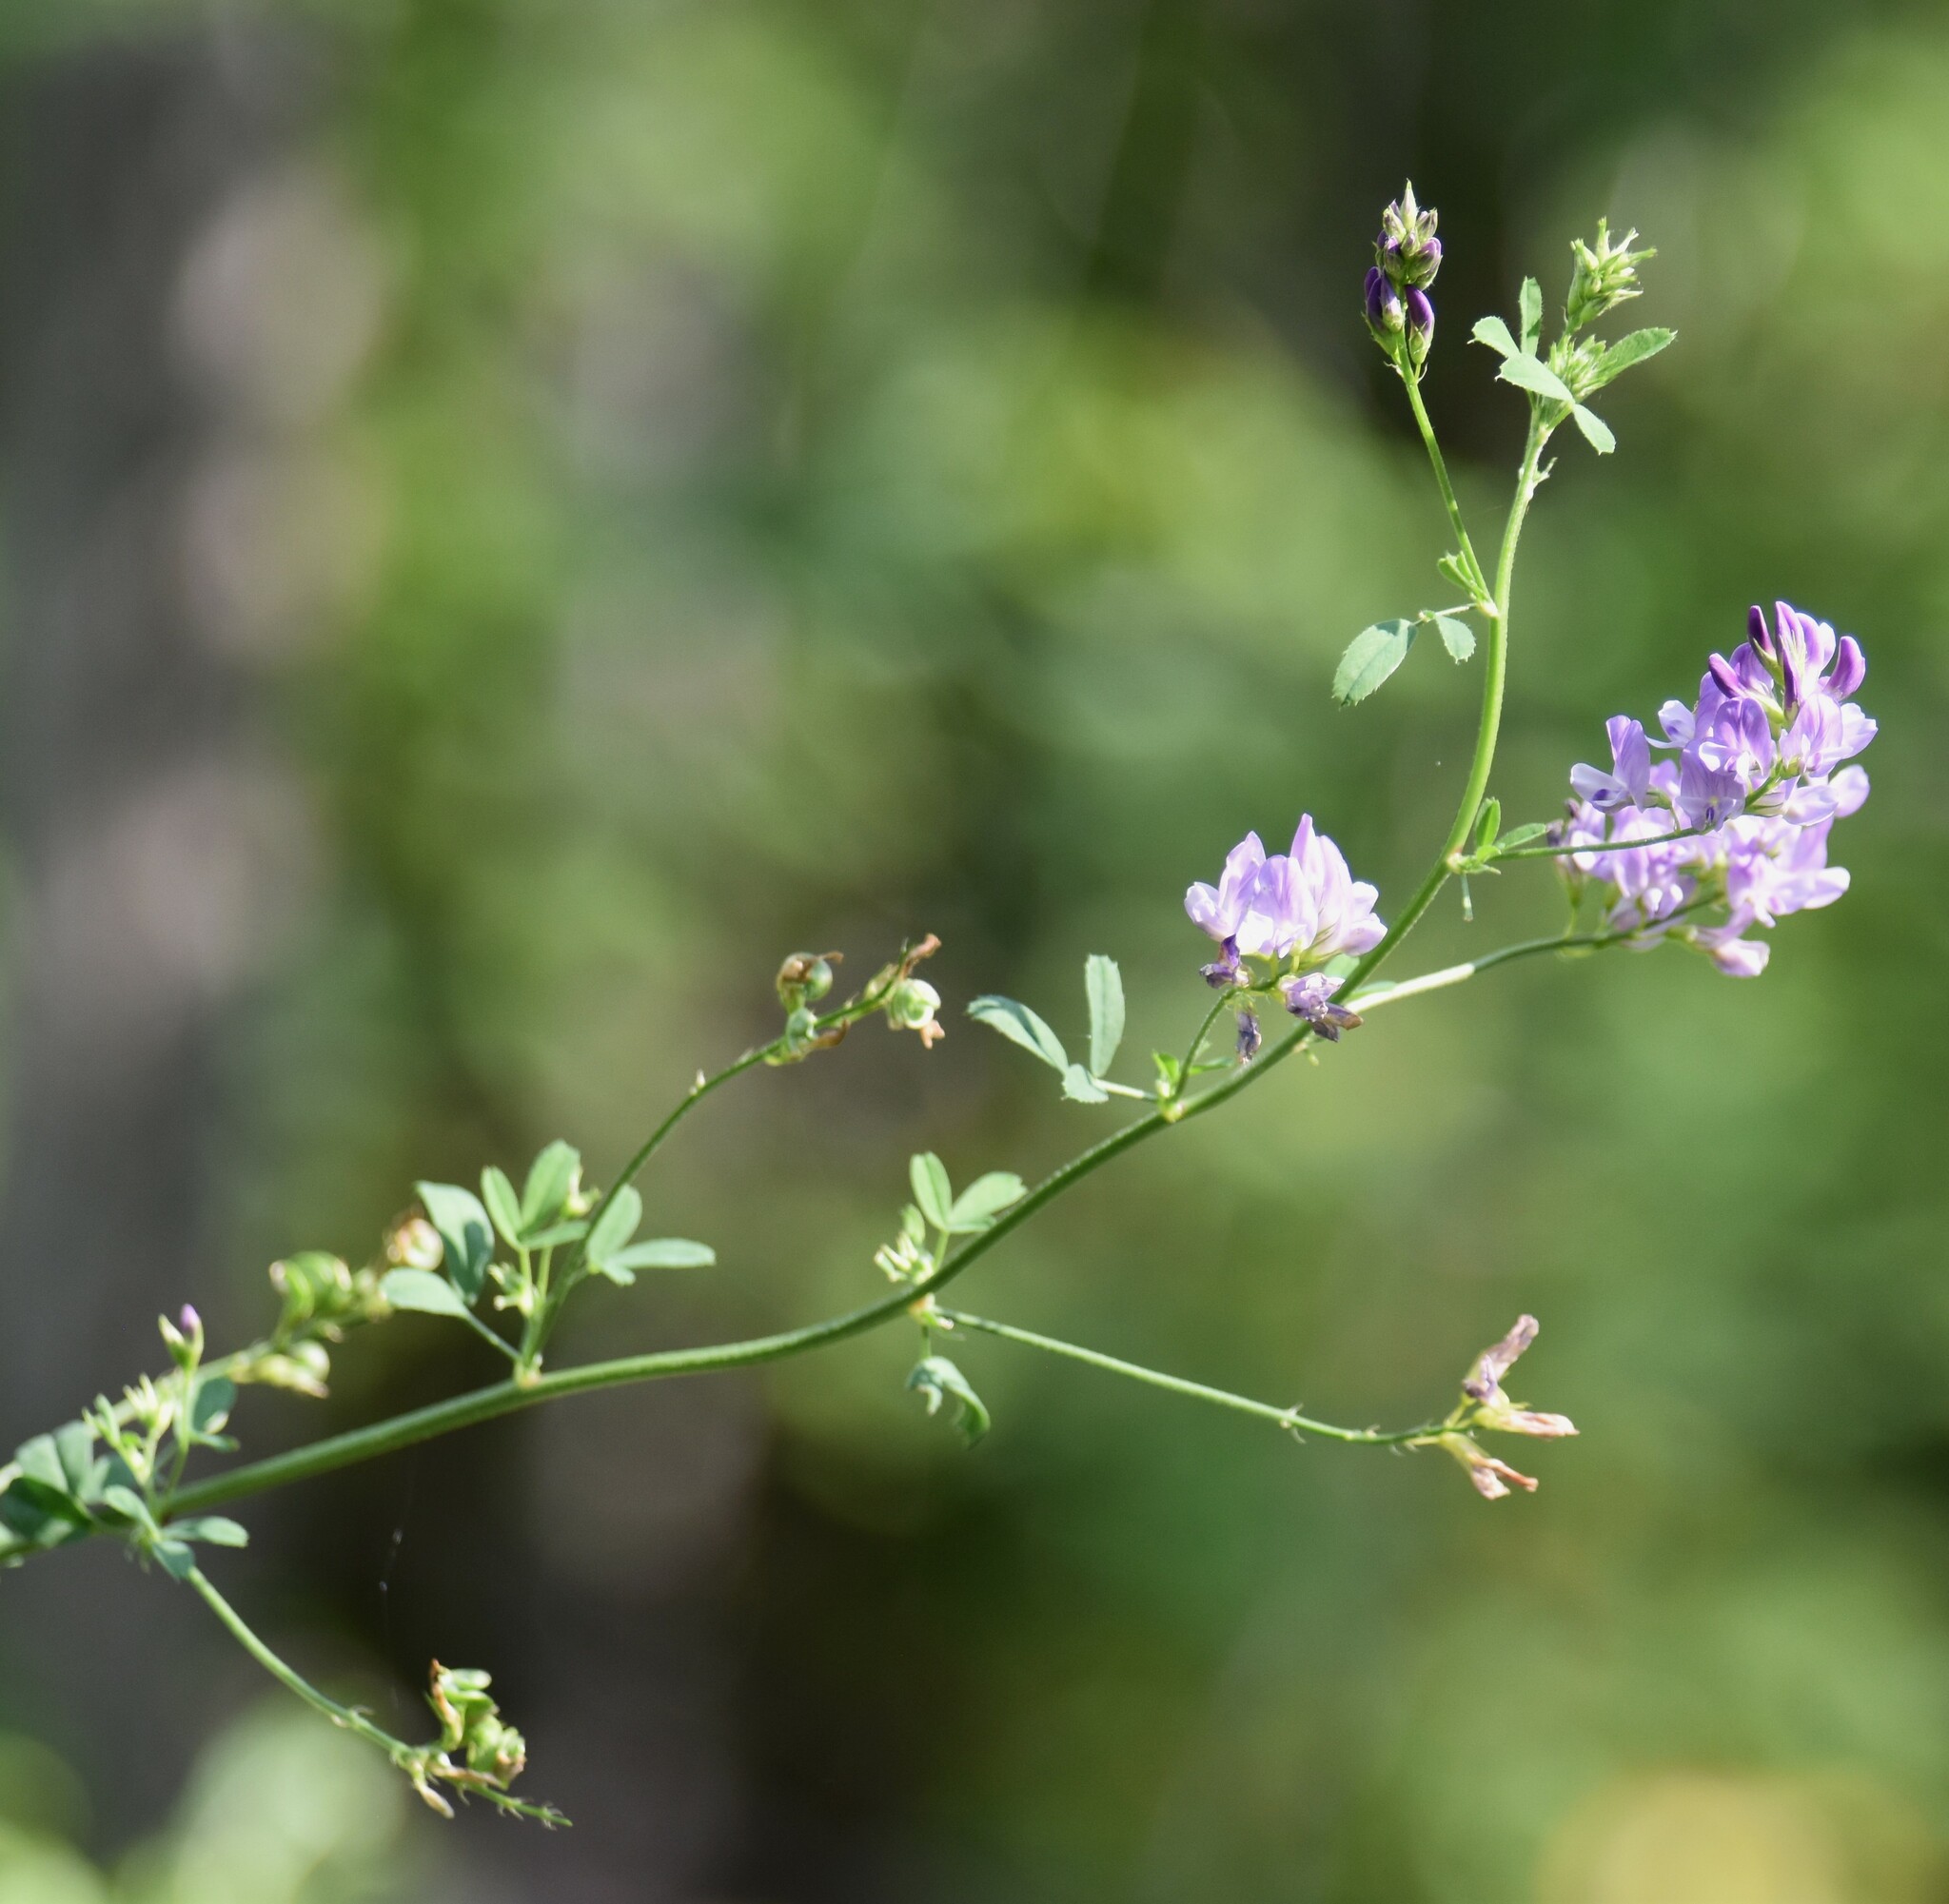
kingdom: Plantae
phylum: Tracheophyta
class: Magnoliopsida
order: Fabales
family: Fabaceae
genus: Medicago
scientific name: Medicago sativa
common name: Alfalfa
